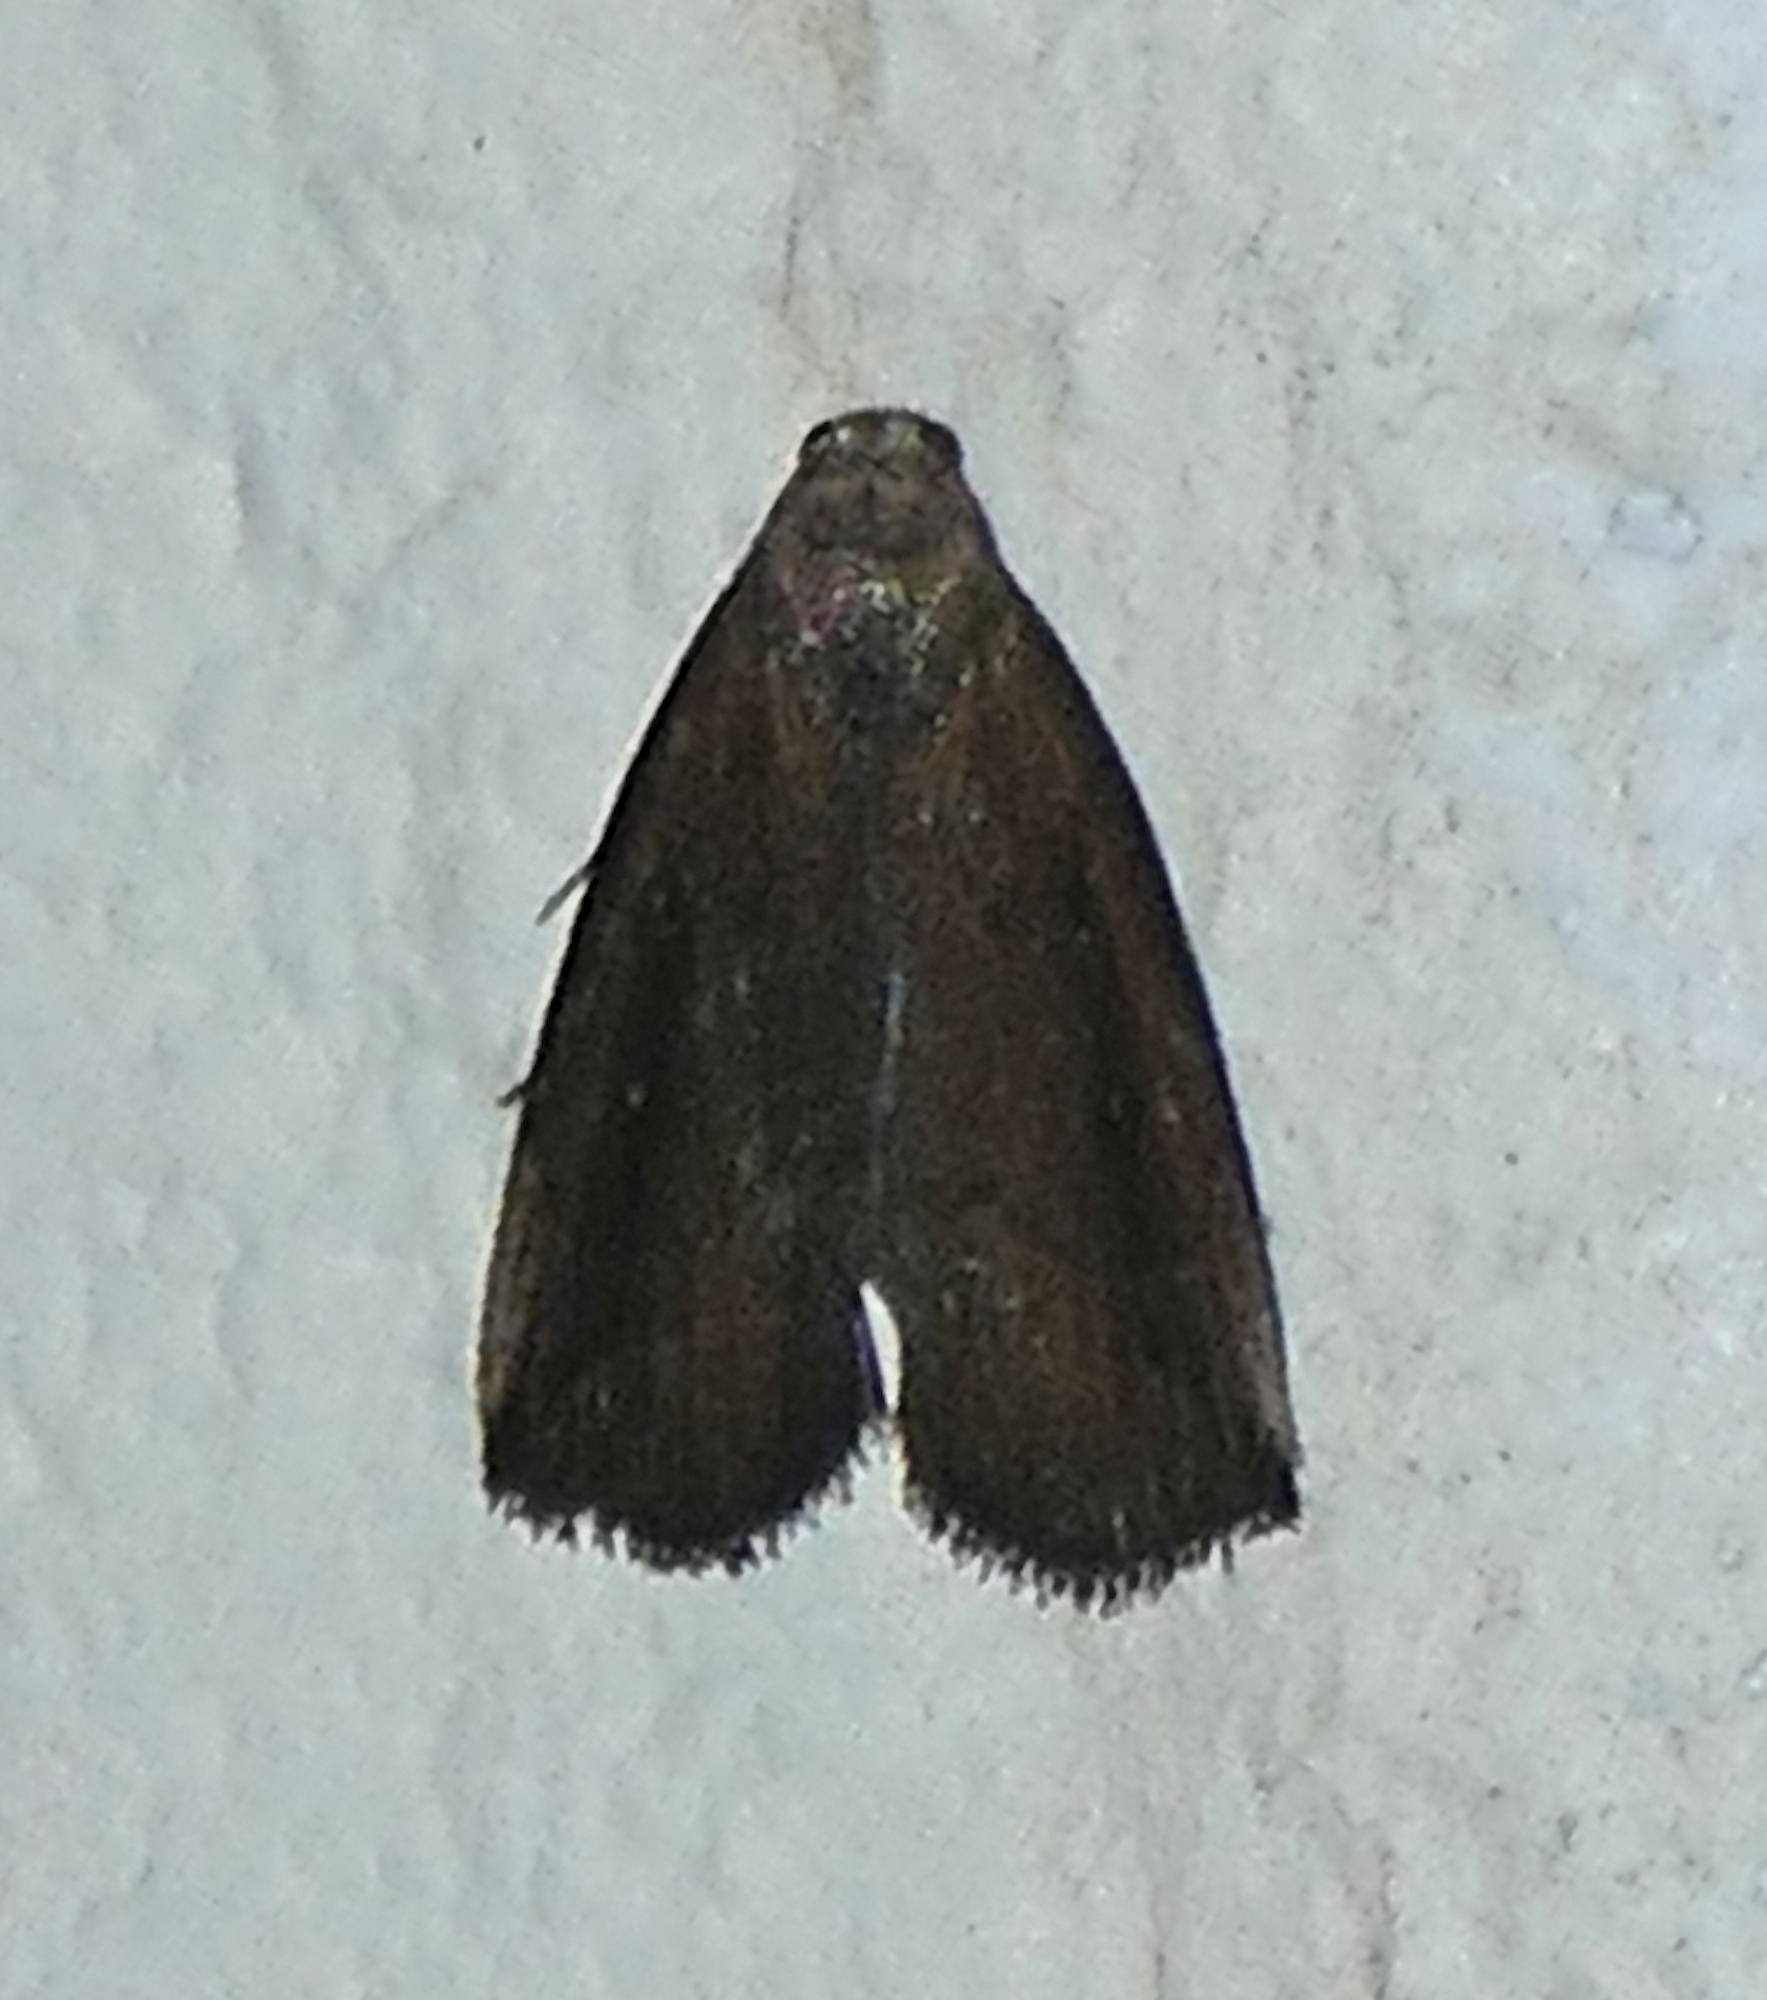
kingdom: Animalia
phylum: Arthropoda
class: Insecta
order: Lepidoptera
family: Erebidae
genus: Macrochilo
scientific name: Macrochilo orciferalis
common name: Bronzy owlet
